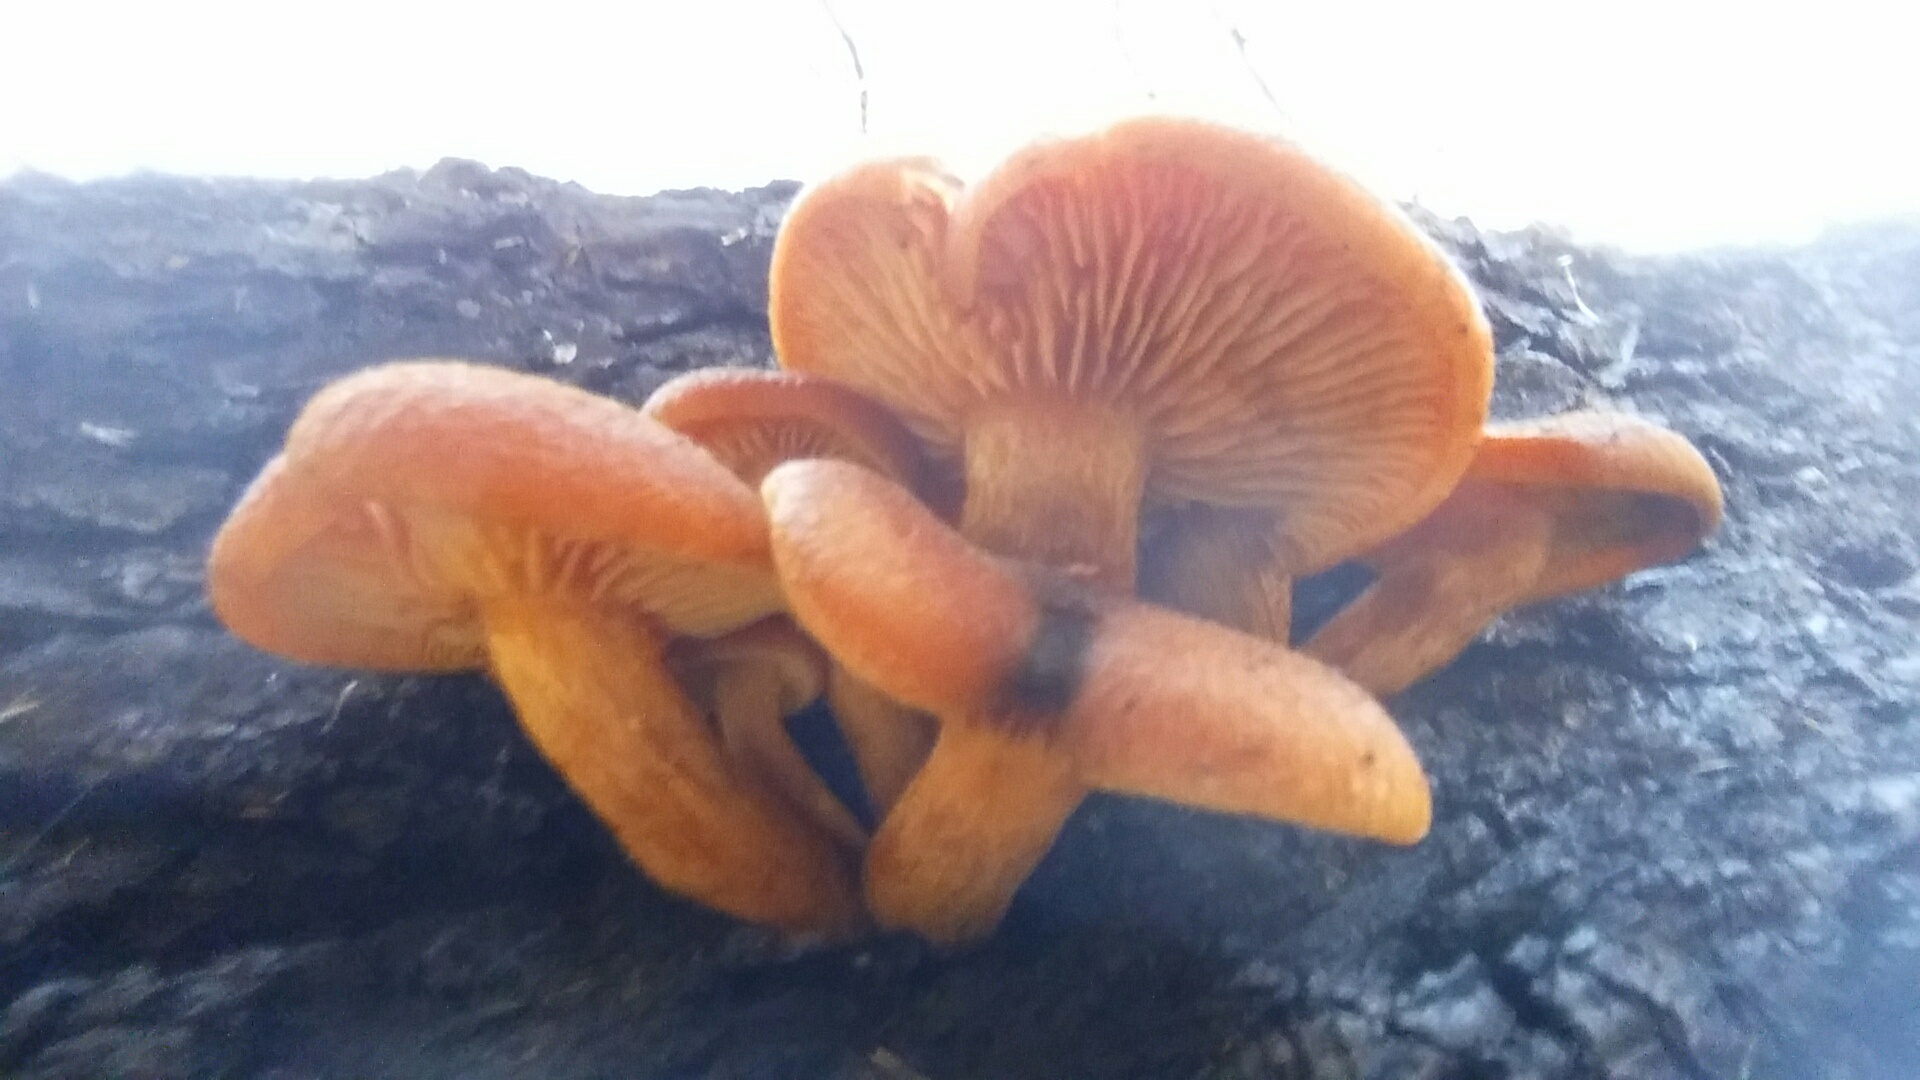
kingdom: Fungi
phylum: Basidiomycota
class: Agaricomycetes
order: Agaricales
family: Hymenogastraceae
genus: Gymnopilus
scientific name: Gymnopilus aurantiophyllus
